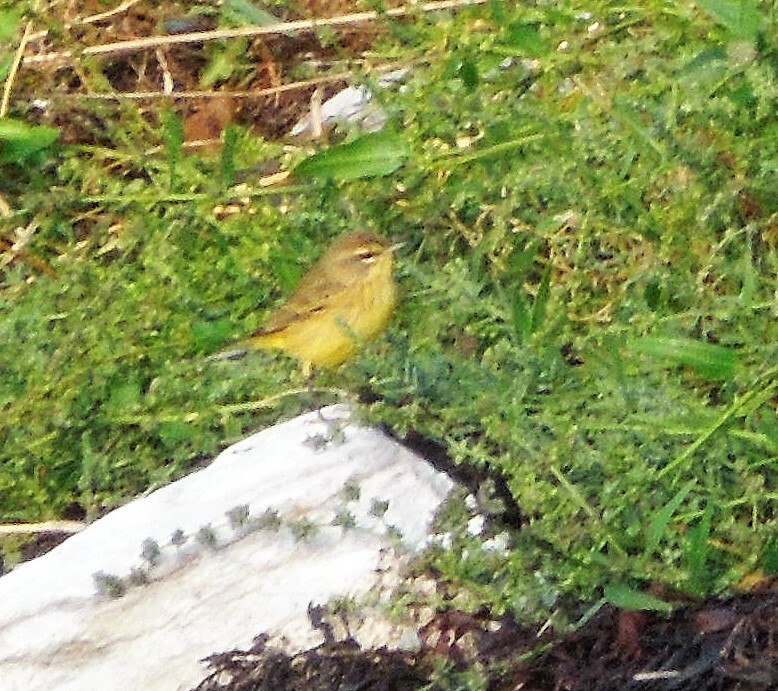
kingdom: Animalia
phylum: Chordata
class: Aves
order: Passeriformes
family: Parulidae
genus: Setophaga
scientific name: Setophaga palmarum
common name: Palm warbler
